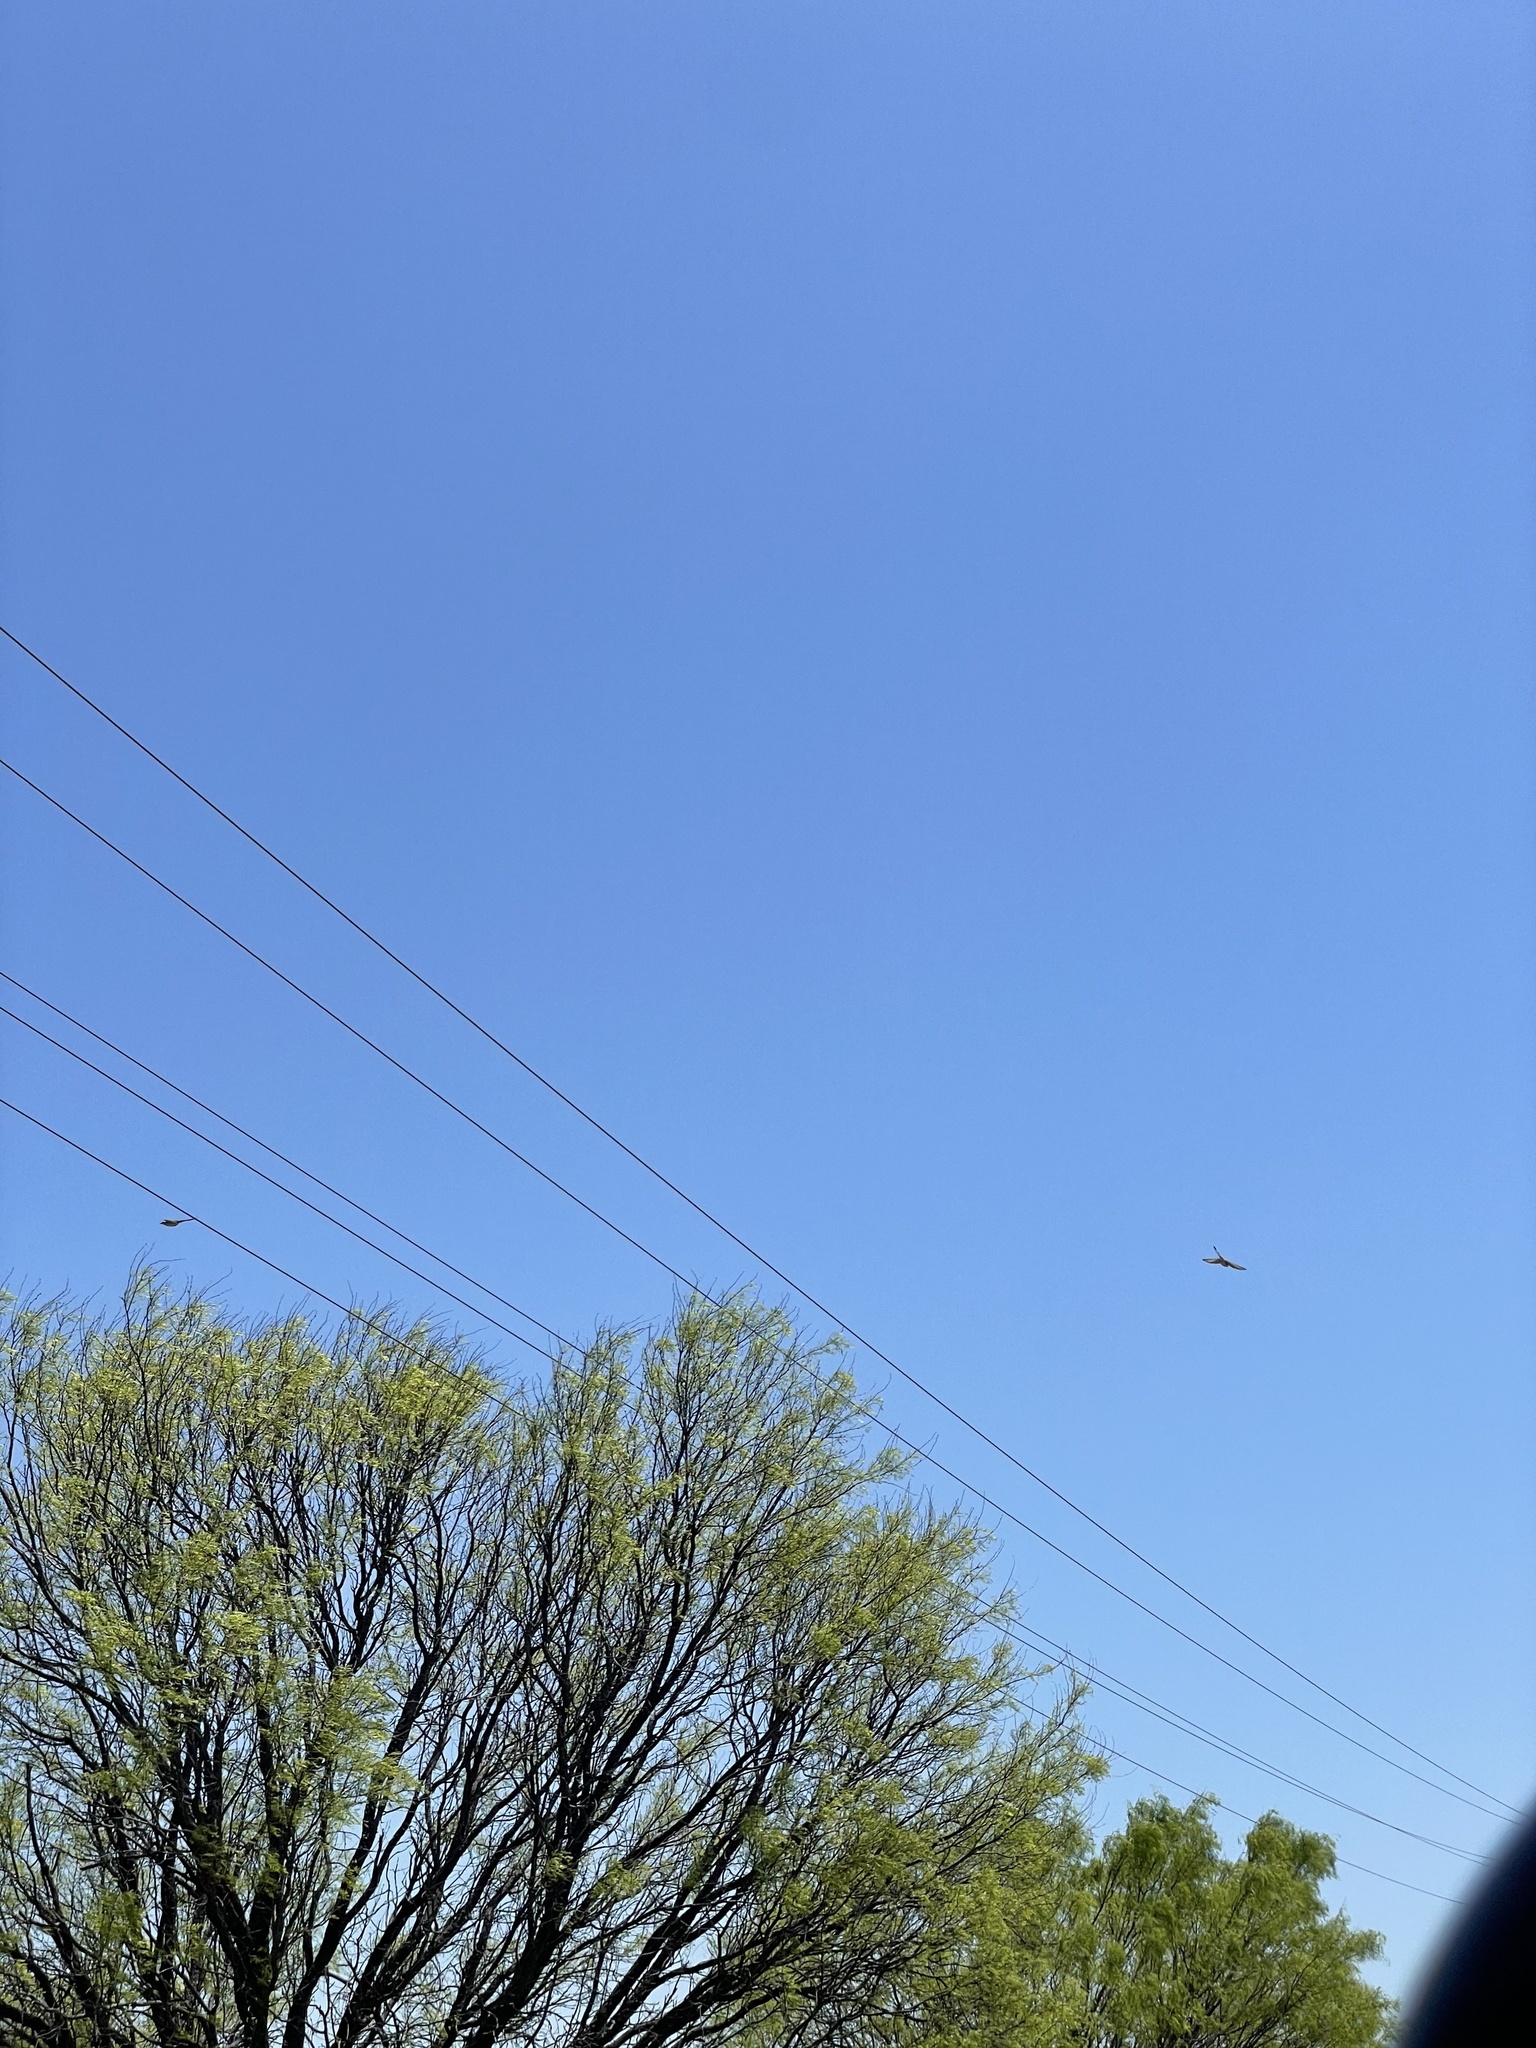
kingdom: Animalia
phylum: Chordata
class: Aves
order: Passeriformes
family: Tyrannidae
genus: Tyrannus
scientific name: Tyrannus forficatus
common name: Scissor-tailed flycatcher
